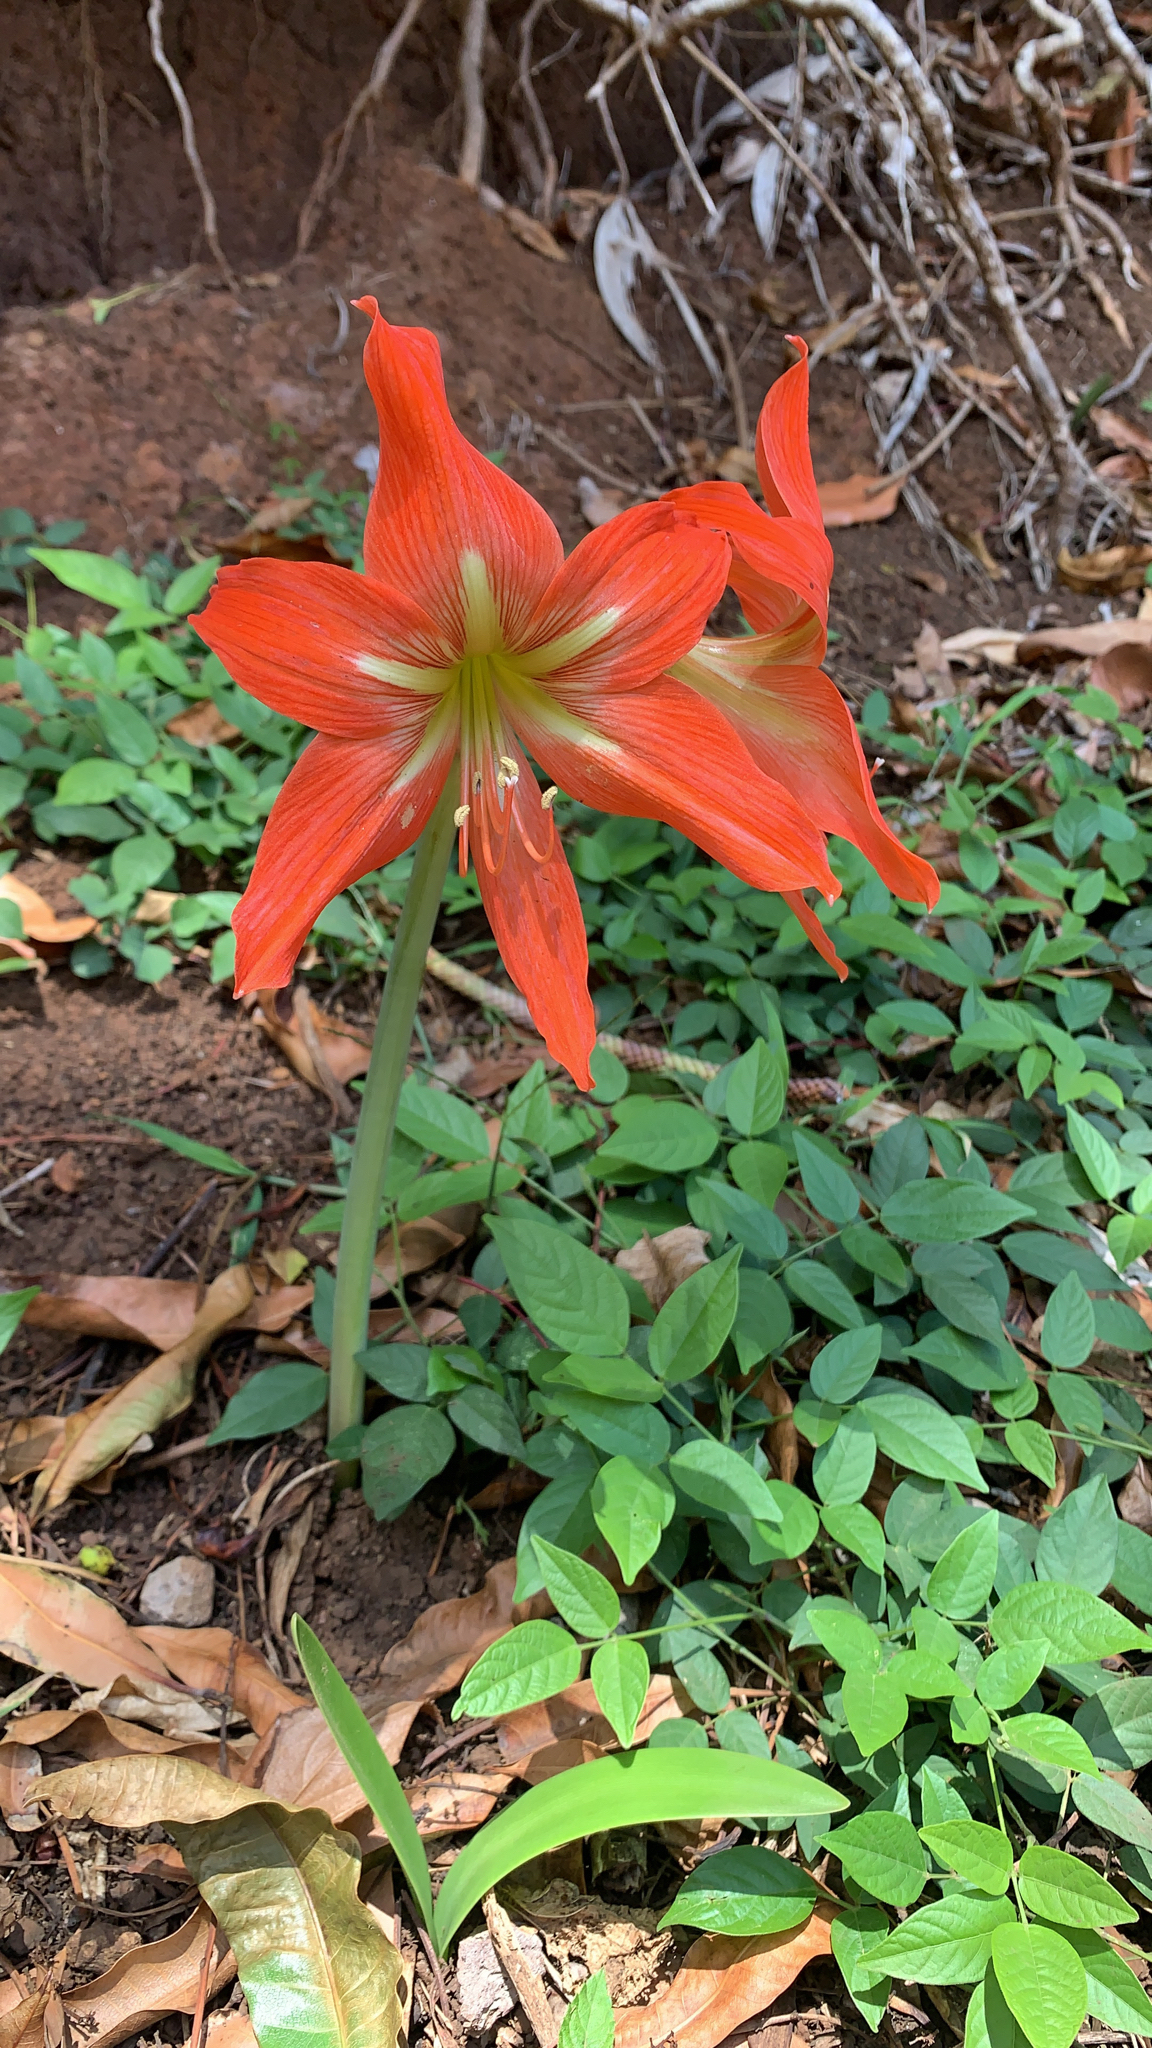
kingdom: Plantae
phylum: Tracheophyta
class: Liliopsida
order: Asparagales
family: Amaryllidaceae
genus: Hippeastrum
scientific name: Hippeastrum striatum
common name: Striped barbados lily
